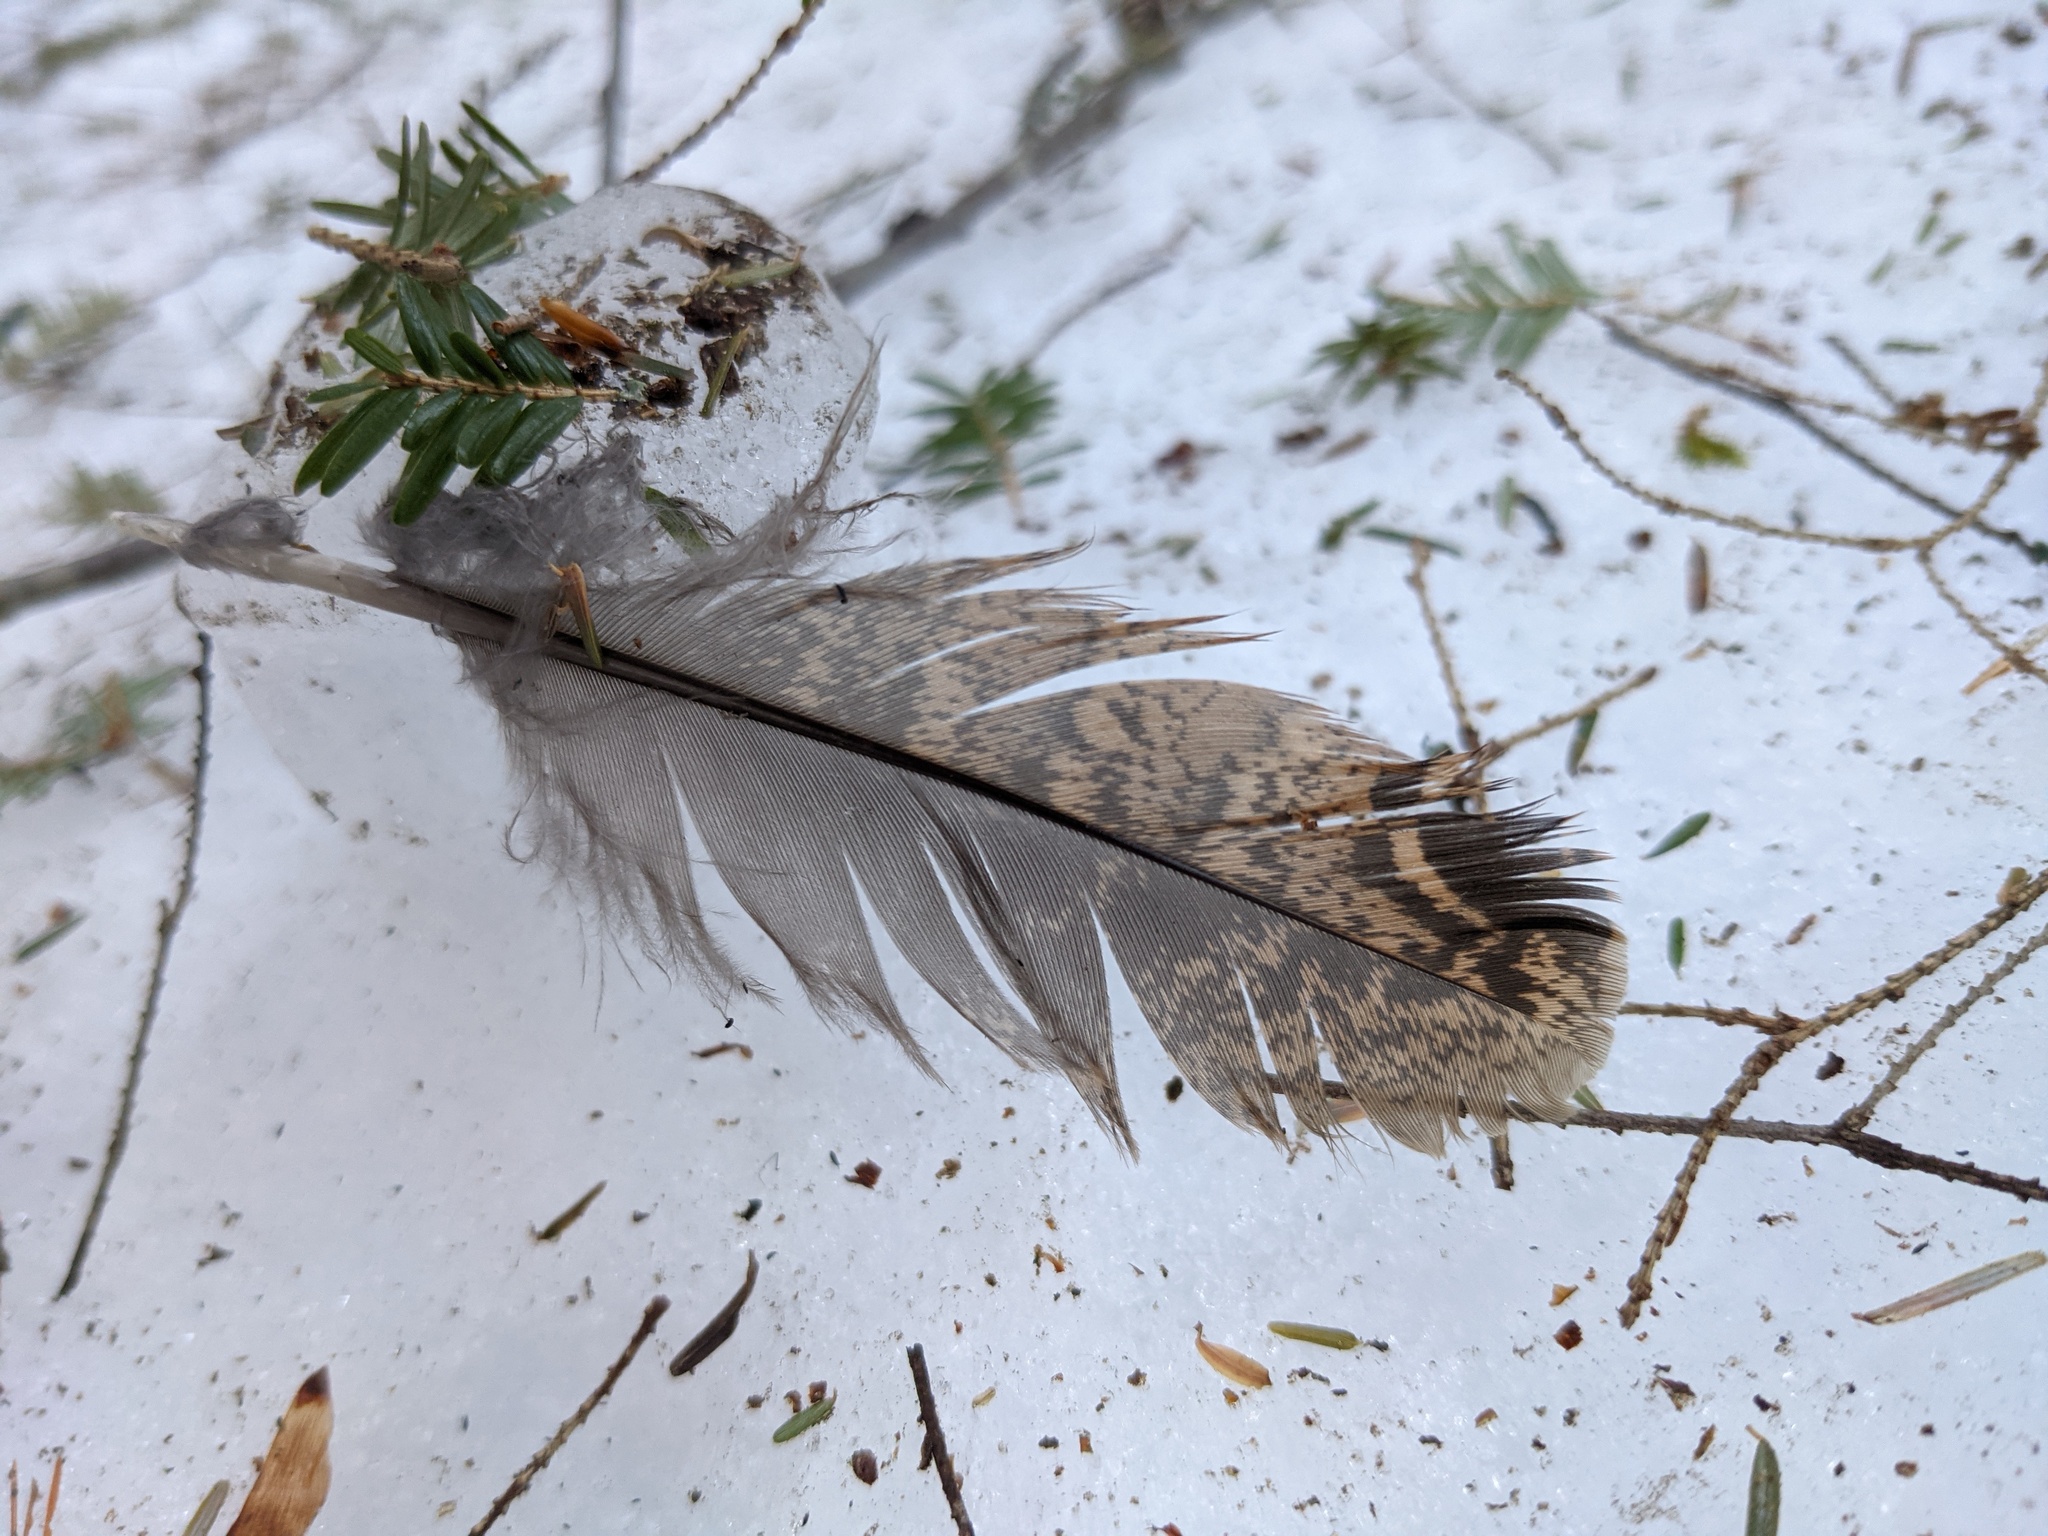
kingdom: Animalia
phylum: Chordata
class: Aves
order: Galliformes
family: Phasianidae
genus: Bonasa
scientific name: Bonasa umbellus
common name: Ruffed grouse
